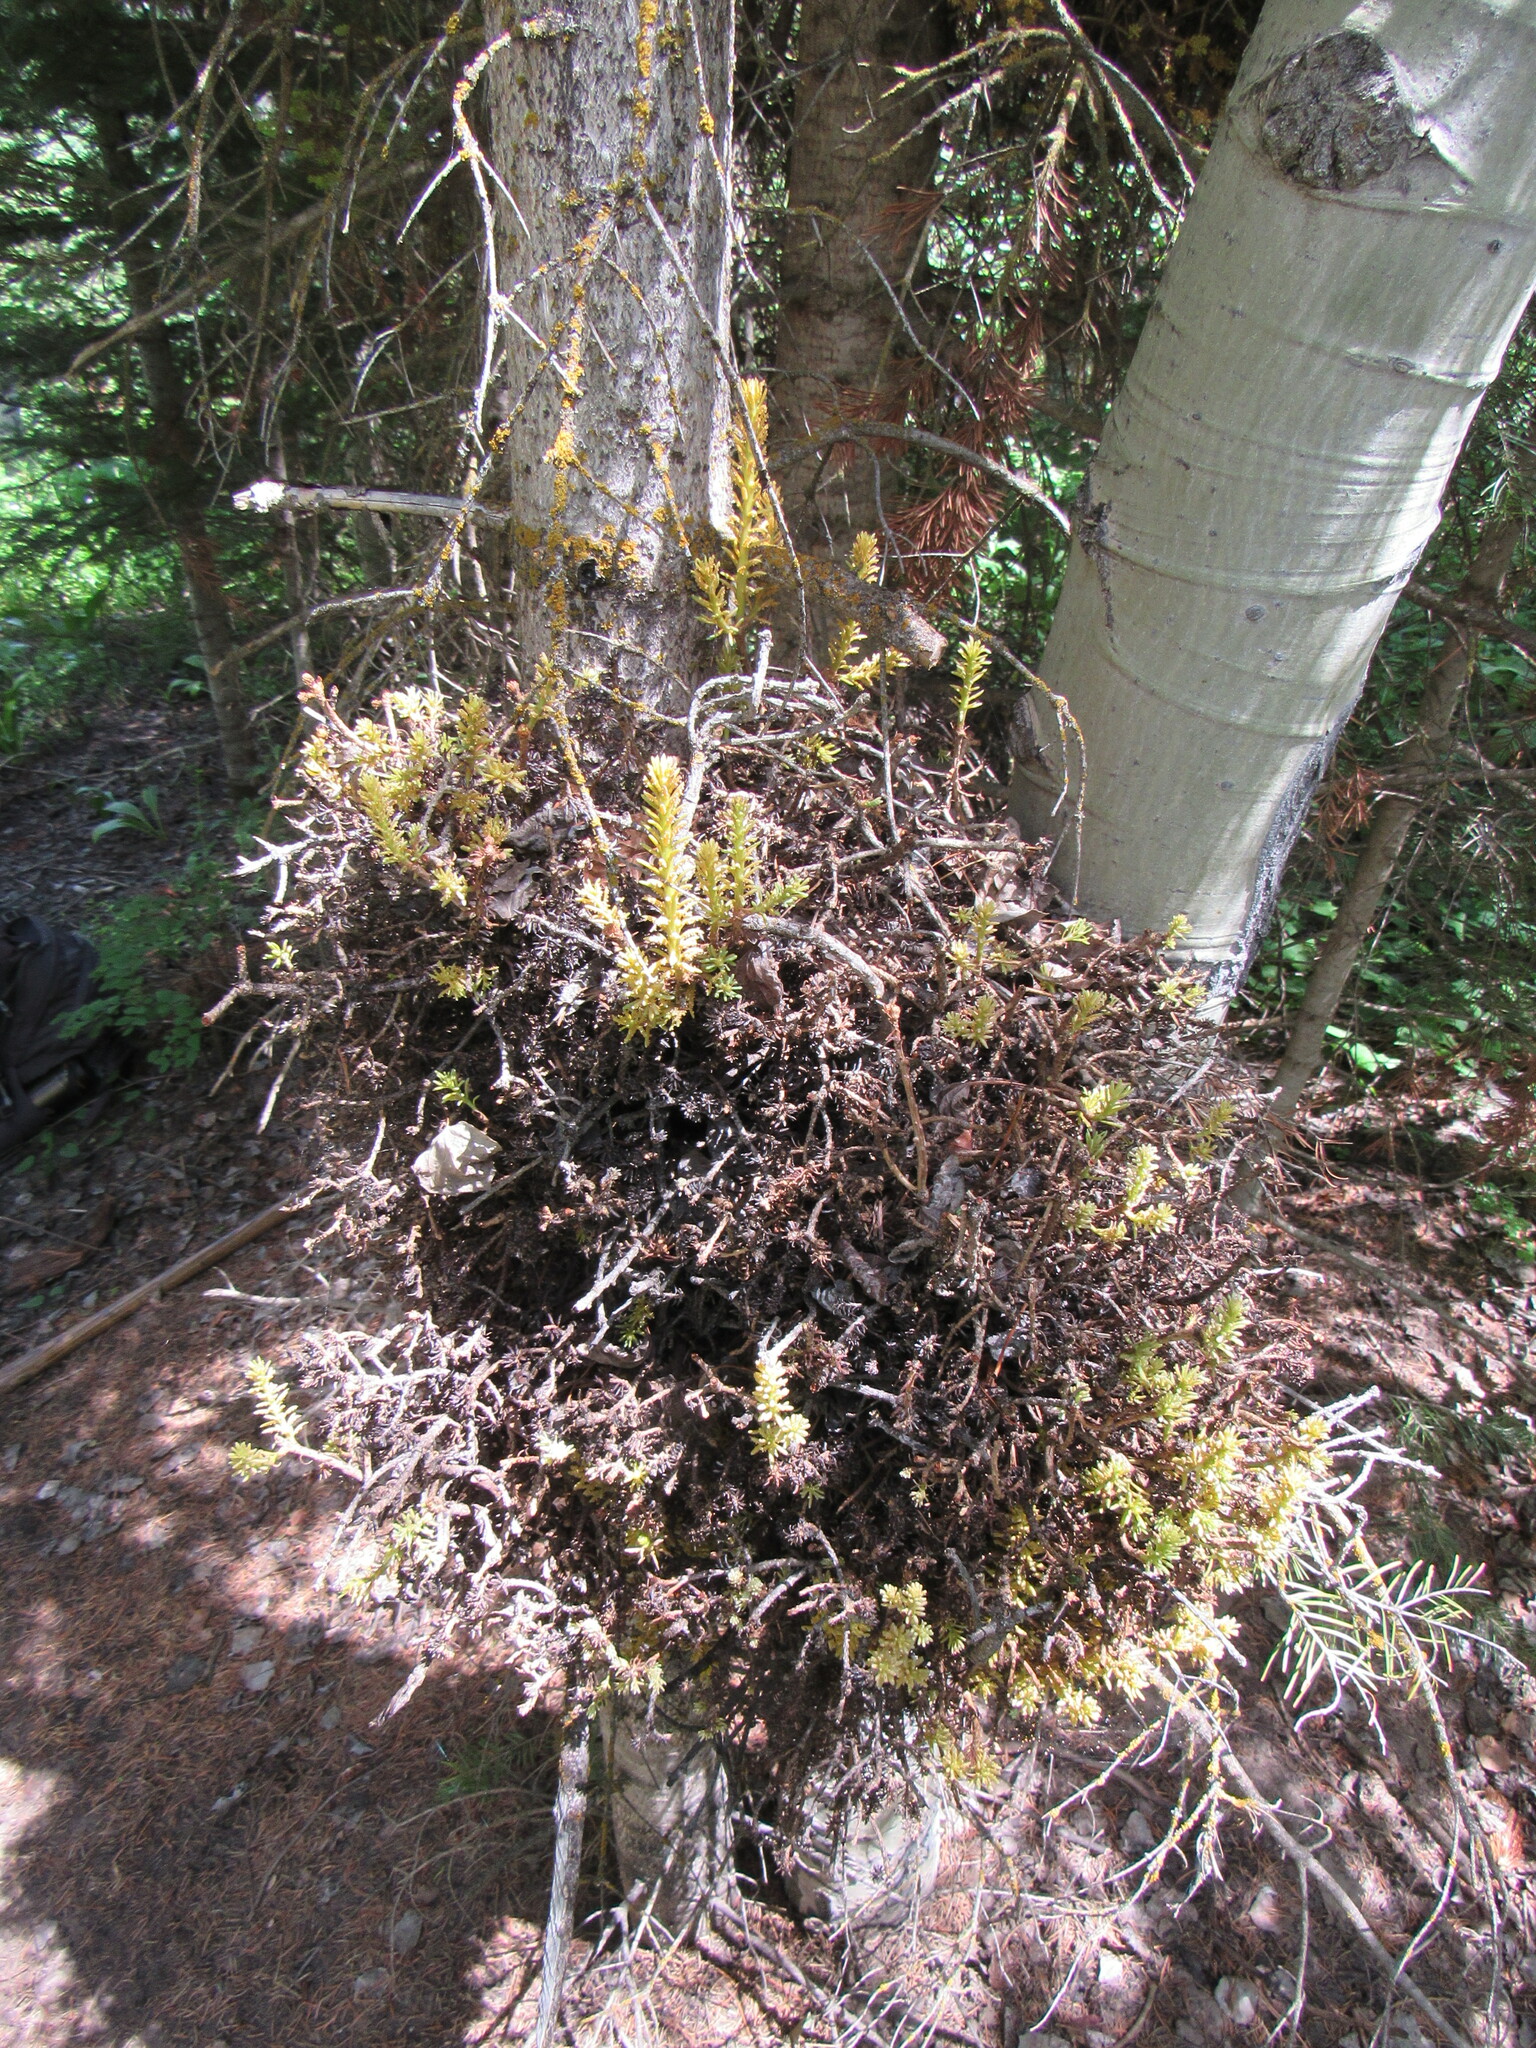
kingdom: Fungi
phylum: Basidiomycota
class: Pucciniomycetes
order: Pucciniales
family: Pucciniastraceae
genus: Melampsorella
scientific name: Melampsorella elatina
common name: Fir broom rust
